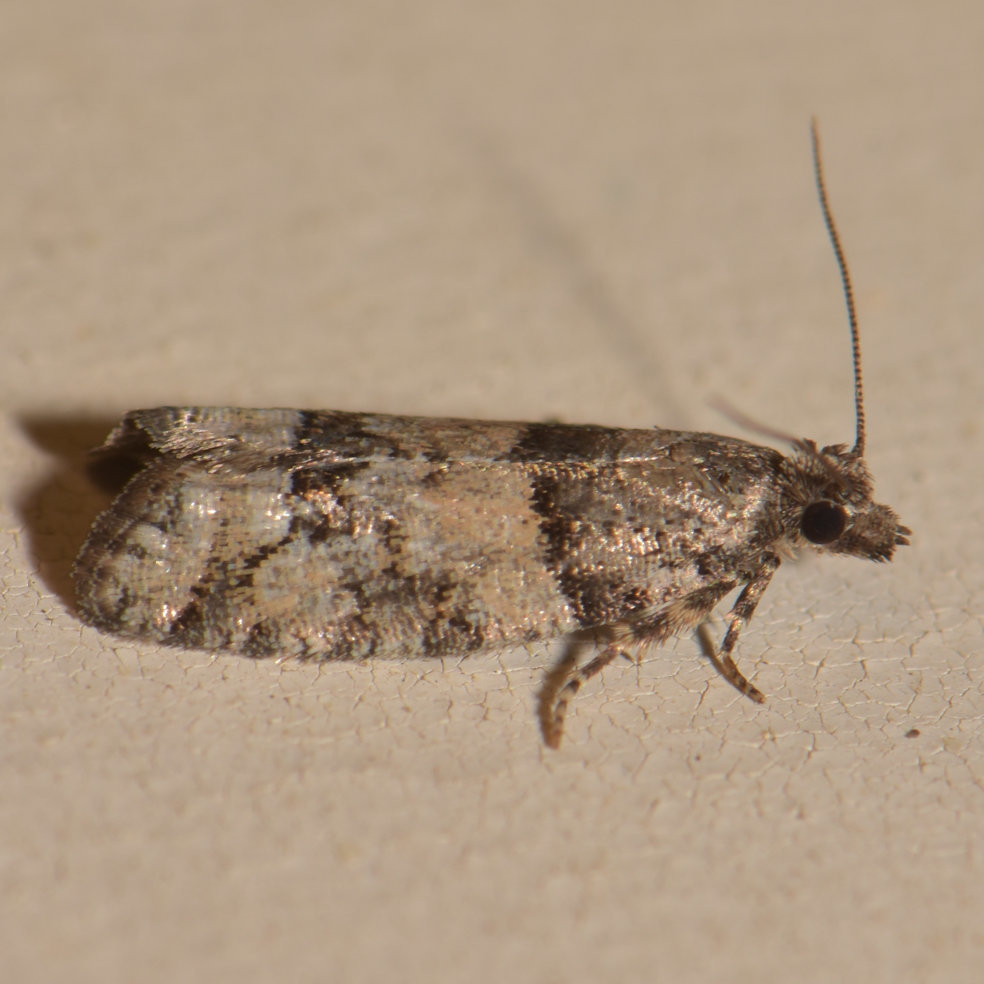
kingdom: Animalia
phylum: Arthropoda
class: Insecta
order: Lepidoptera
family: Tortricidae
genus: Epinotia
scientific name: Epinotia radicana
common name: Red-striped needleworm moth
